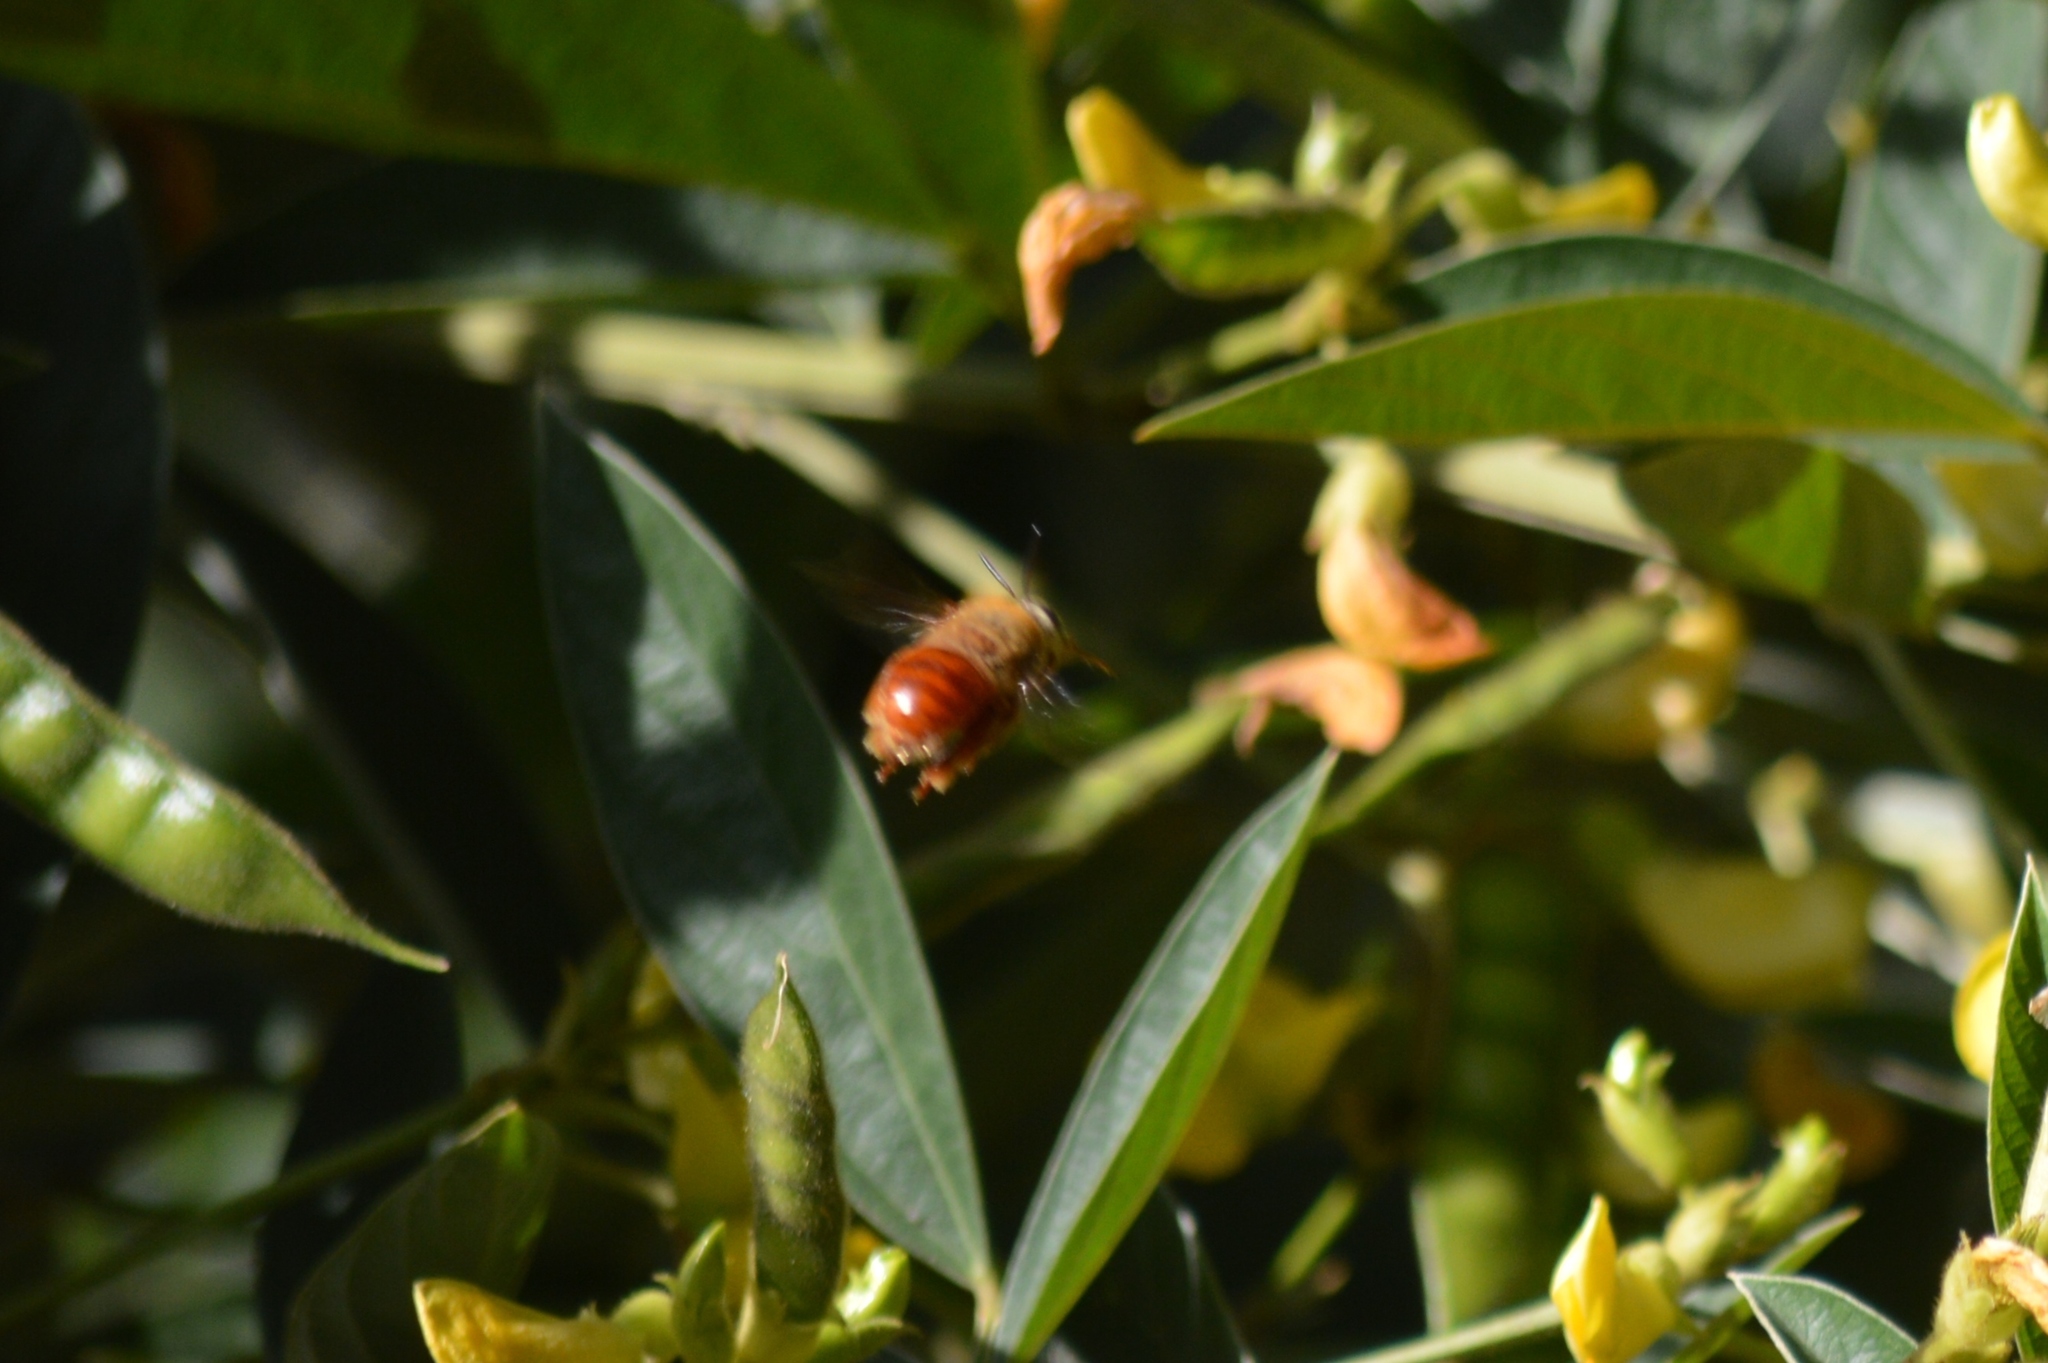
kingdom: Animalia
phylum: Arthropoda
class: Insecta
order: Hymenoptera
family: Apidae
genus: Centris
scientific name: Centris fuscata
